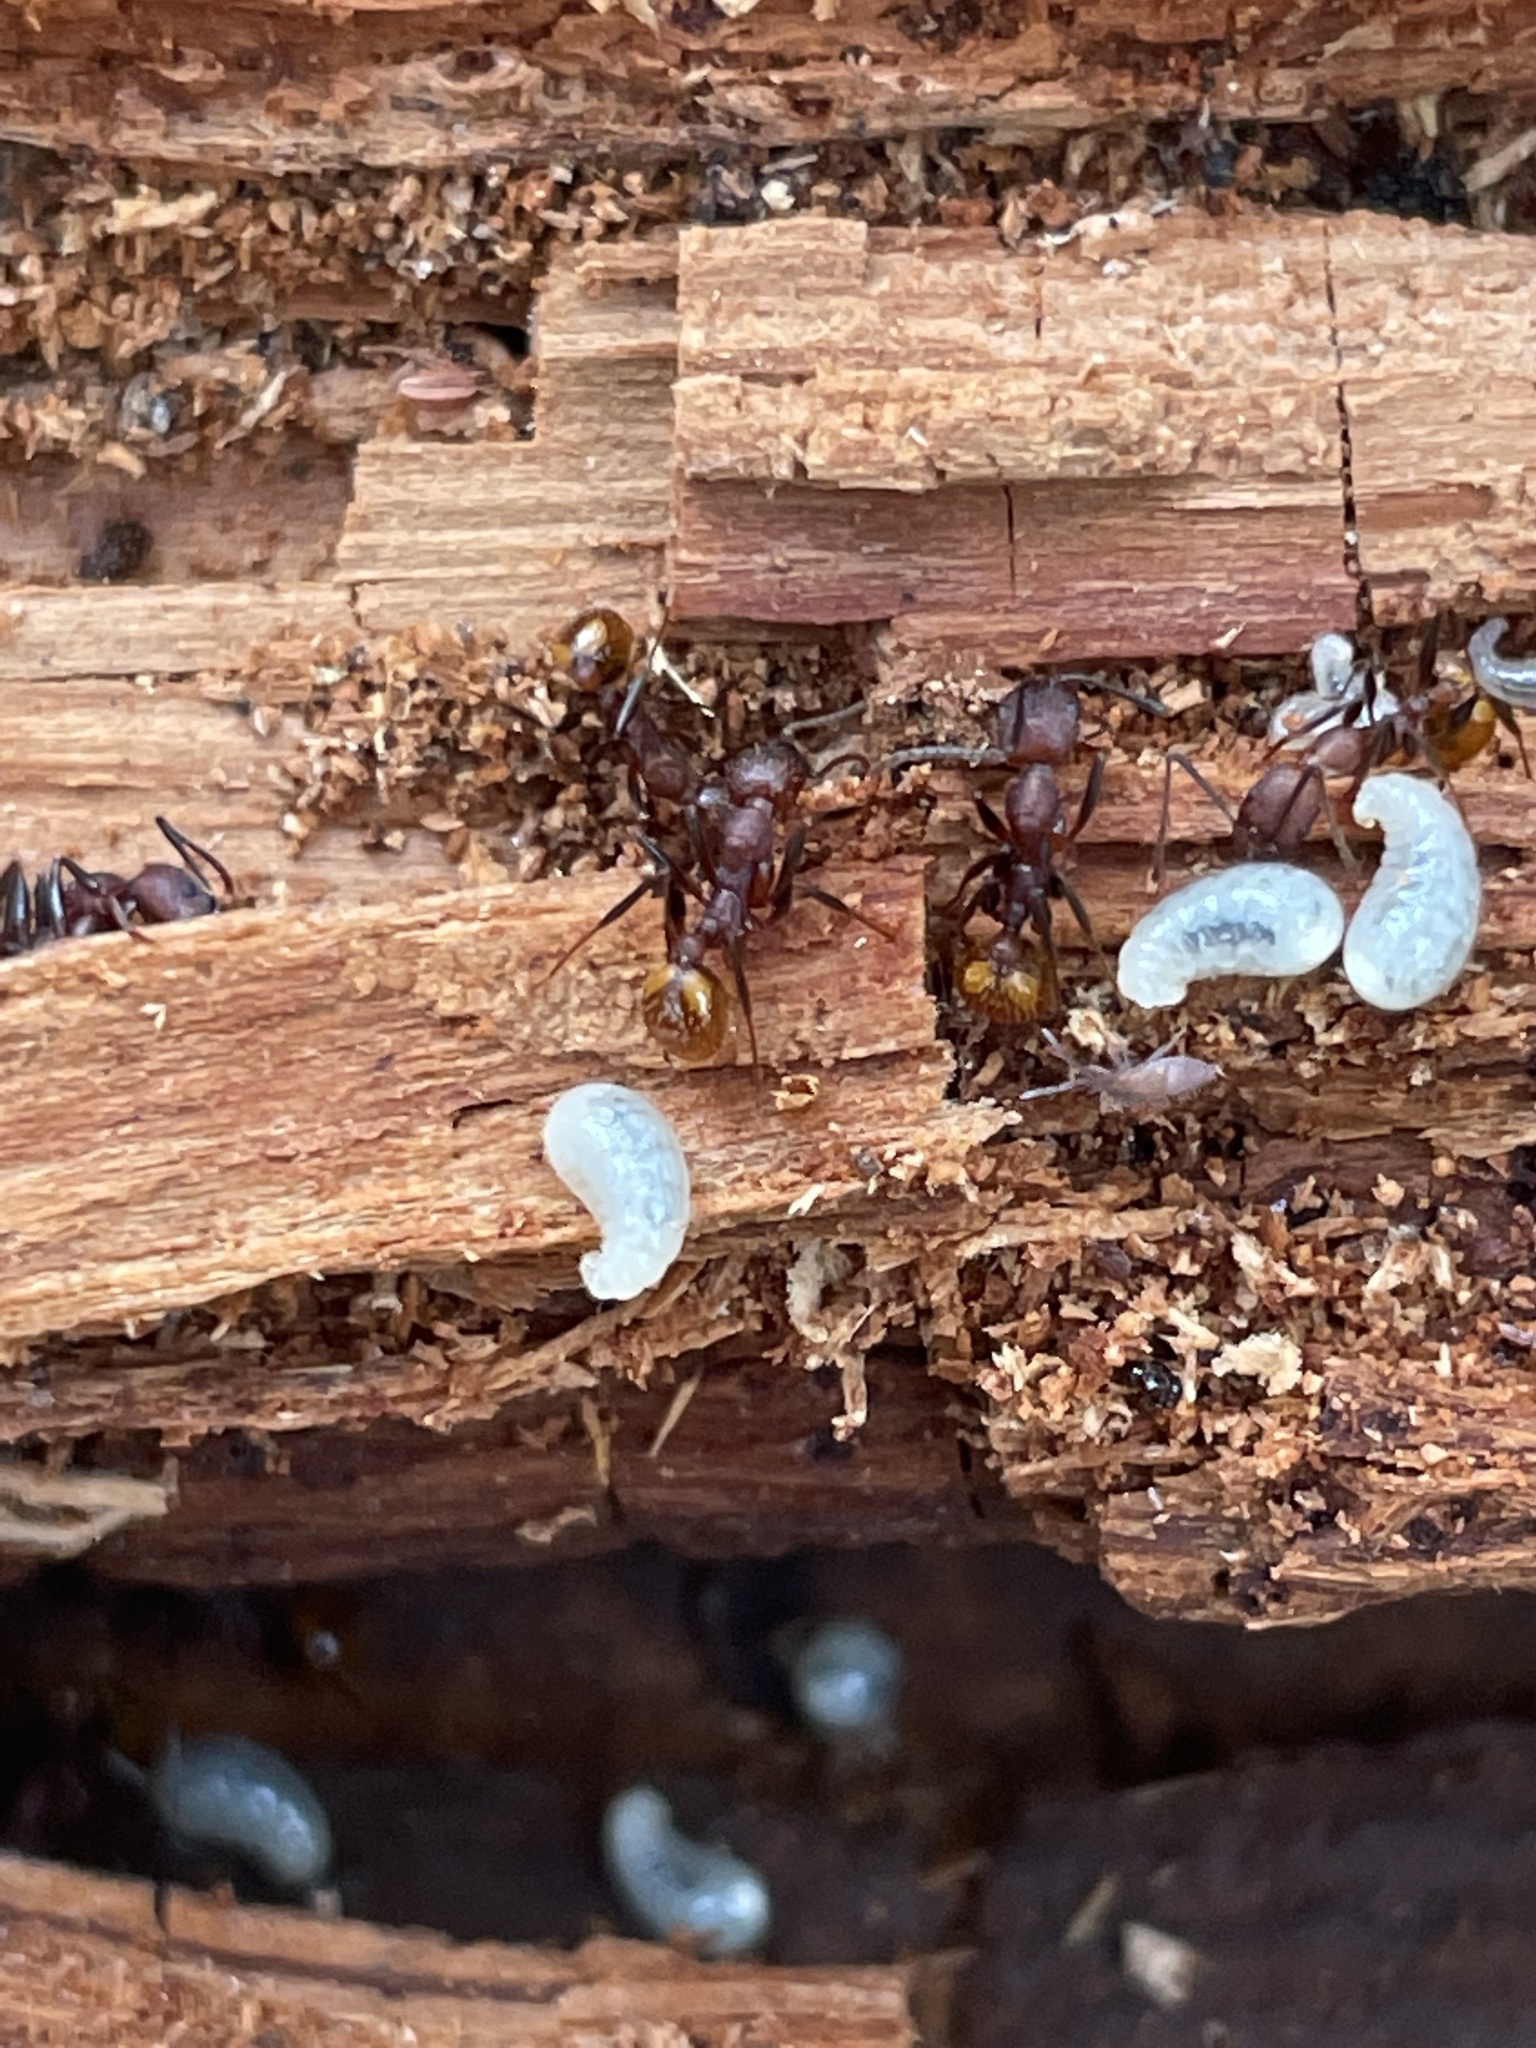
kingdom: Animalia
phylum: Arthropoda
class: Insecta
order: Hymenoptera
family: Formicidae
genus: Aphaenogaster
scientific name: Aphaenogaster
